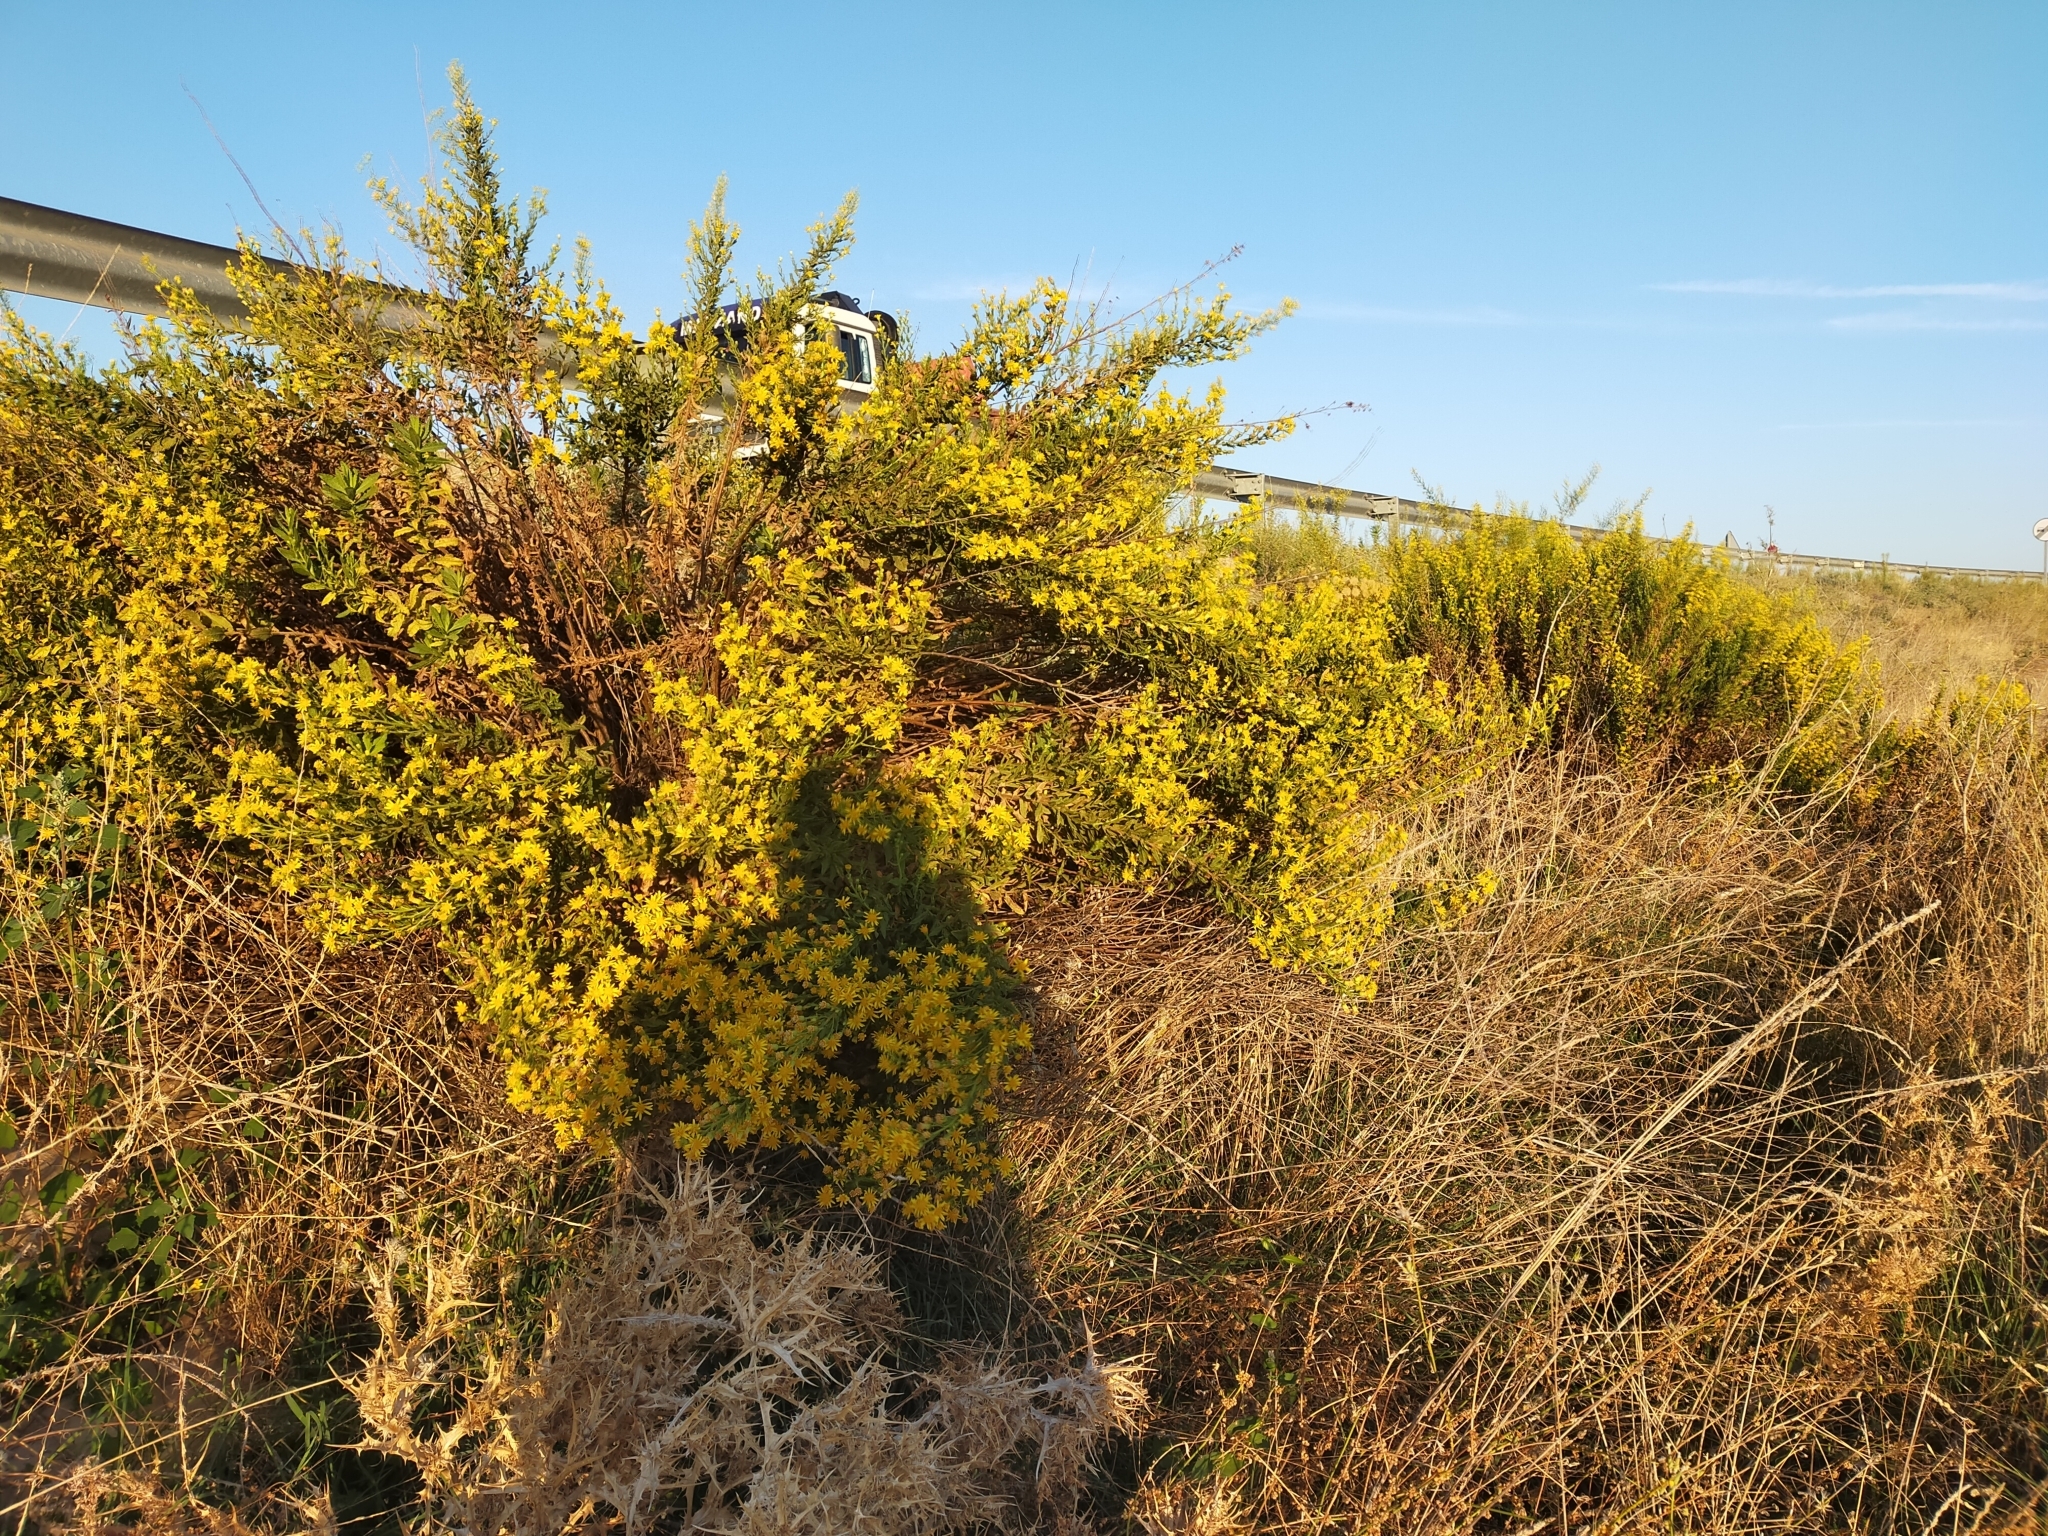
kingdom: Plantae
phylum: Tracheophyta
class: Magnoliopsida
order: Asterales
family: Asteraceae
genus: Dittrichia
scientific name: Dittrichia viscosa
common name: Woody fleabane
